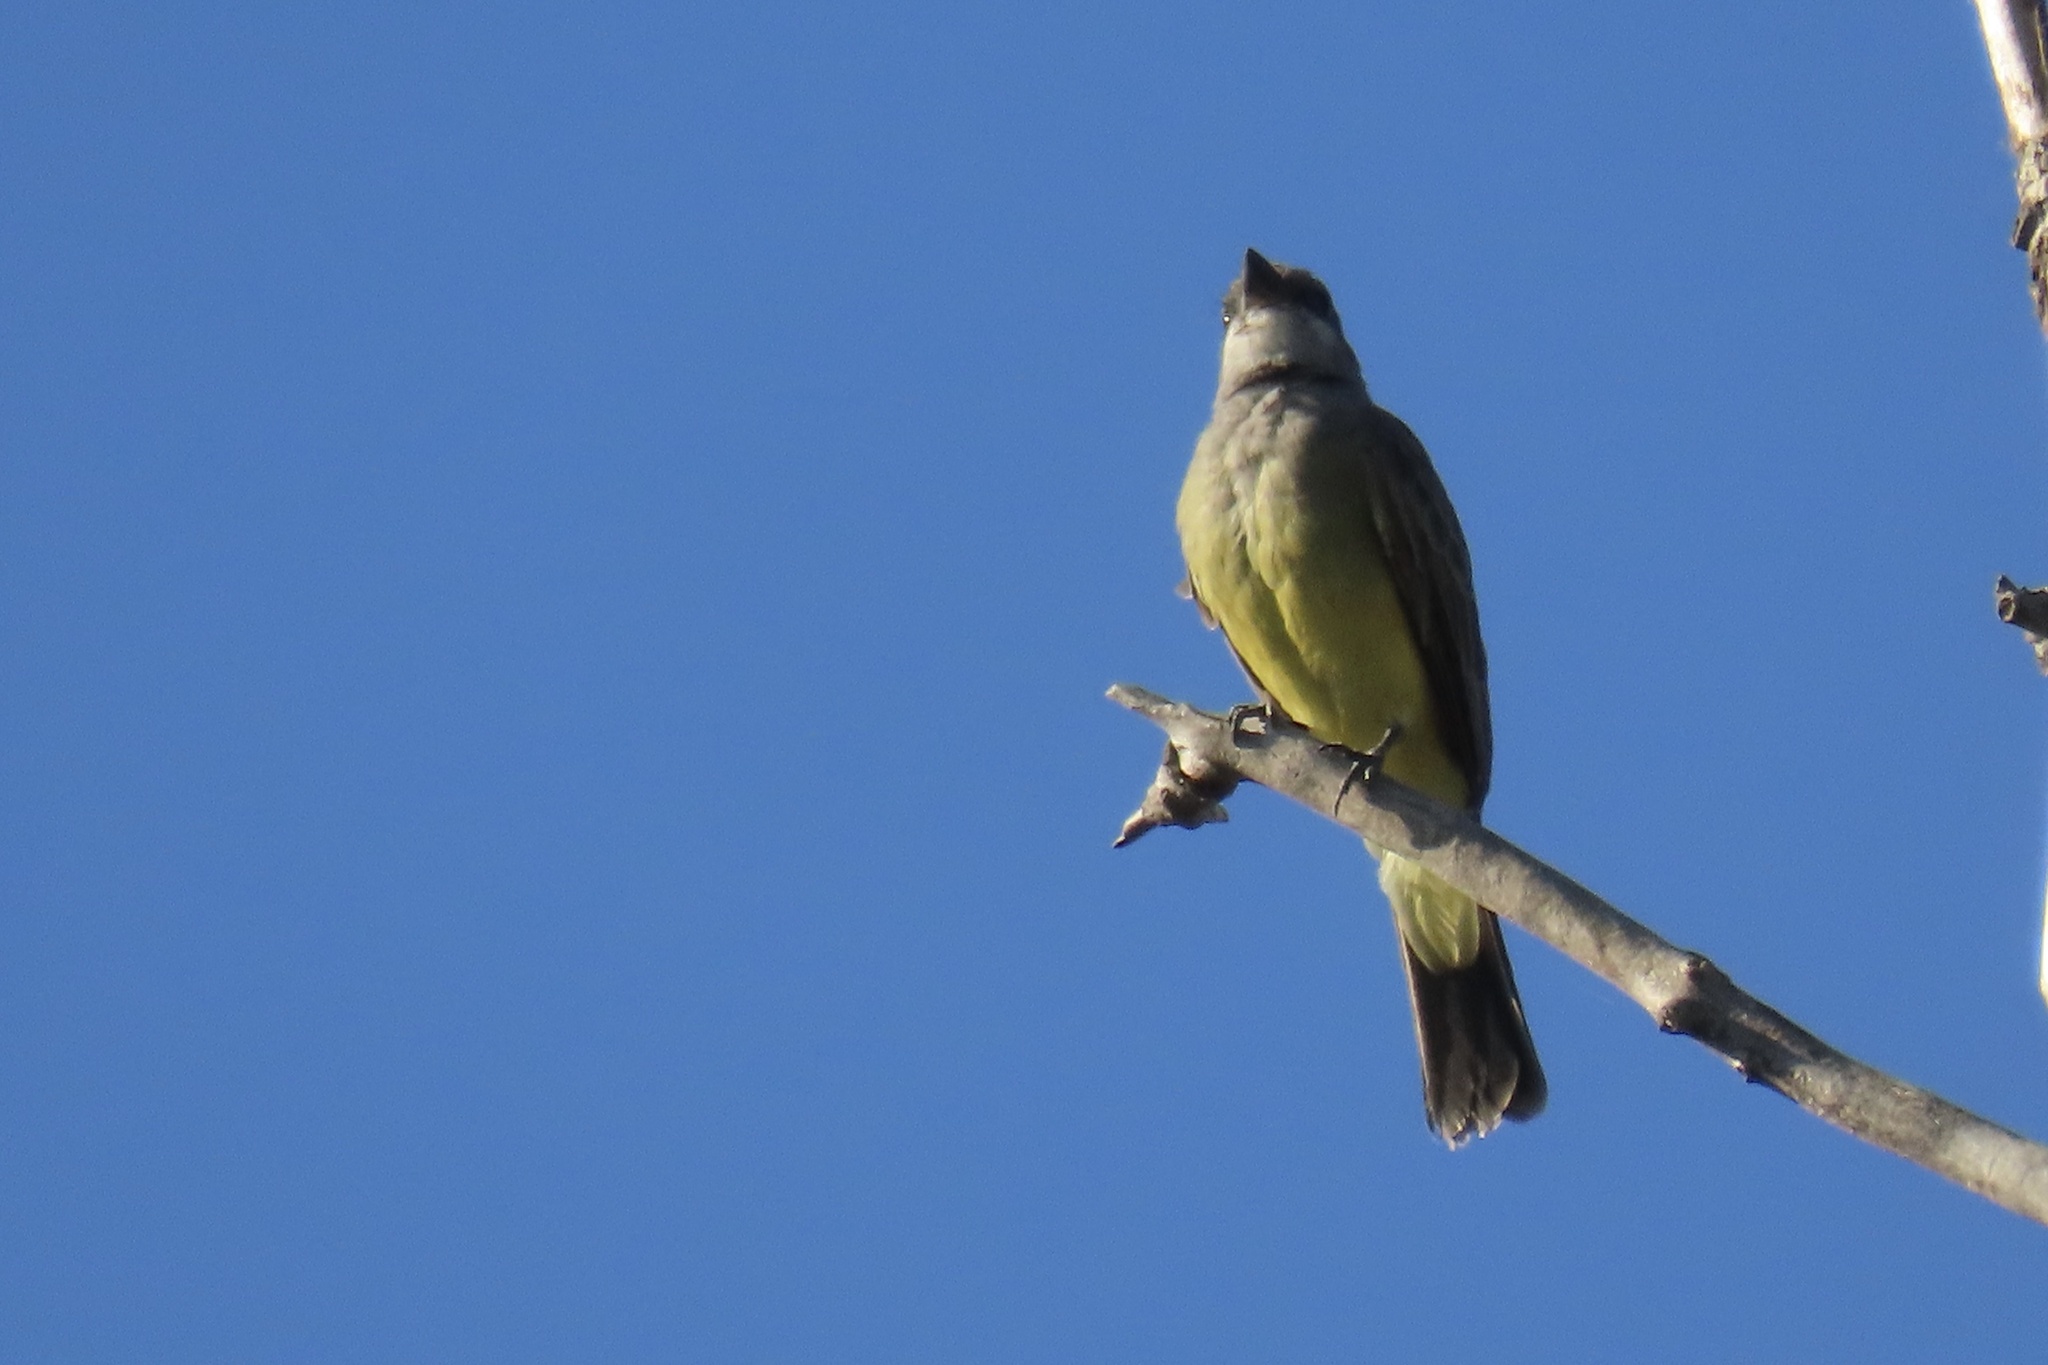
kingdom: Animalia
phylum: Chordata
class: Aves
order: Passeriformes
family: Tyrannidae
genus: Tyrannus
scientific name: Tyrannus vociferans
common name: Cassin's kingbird
